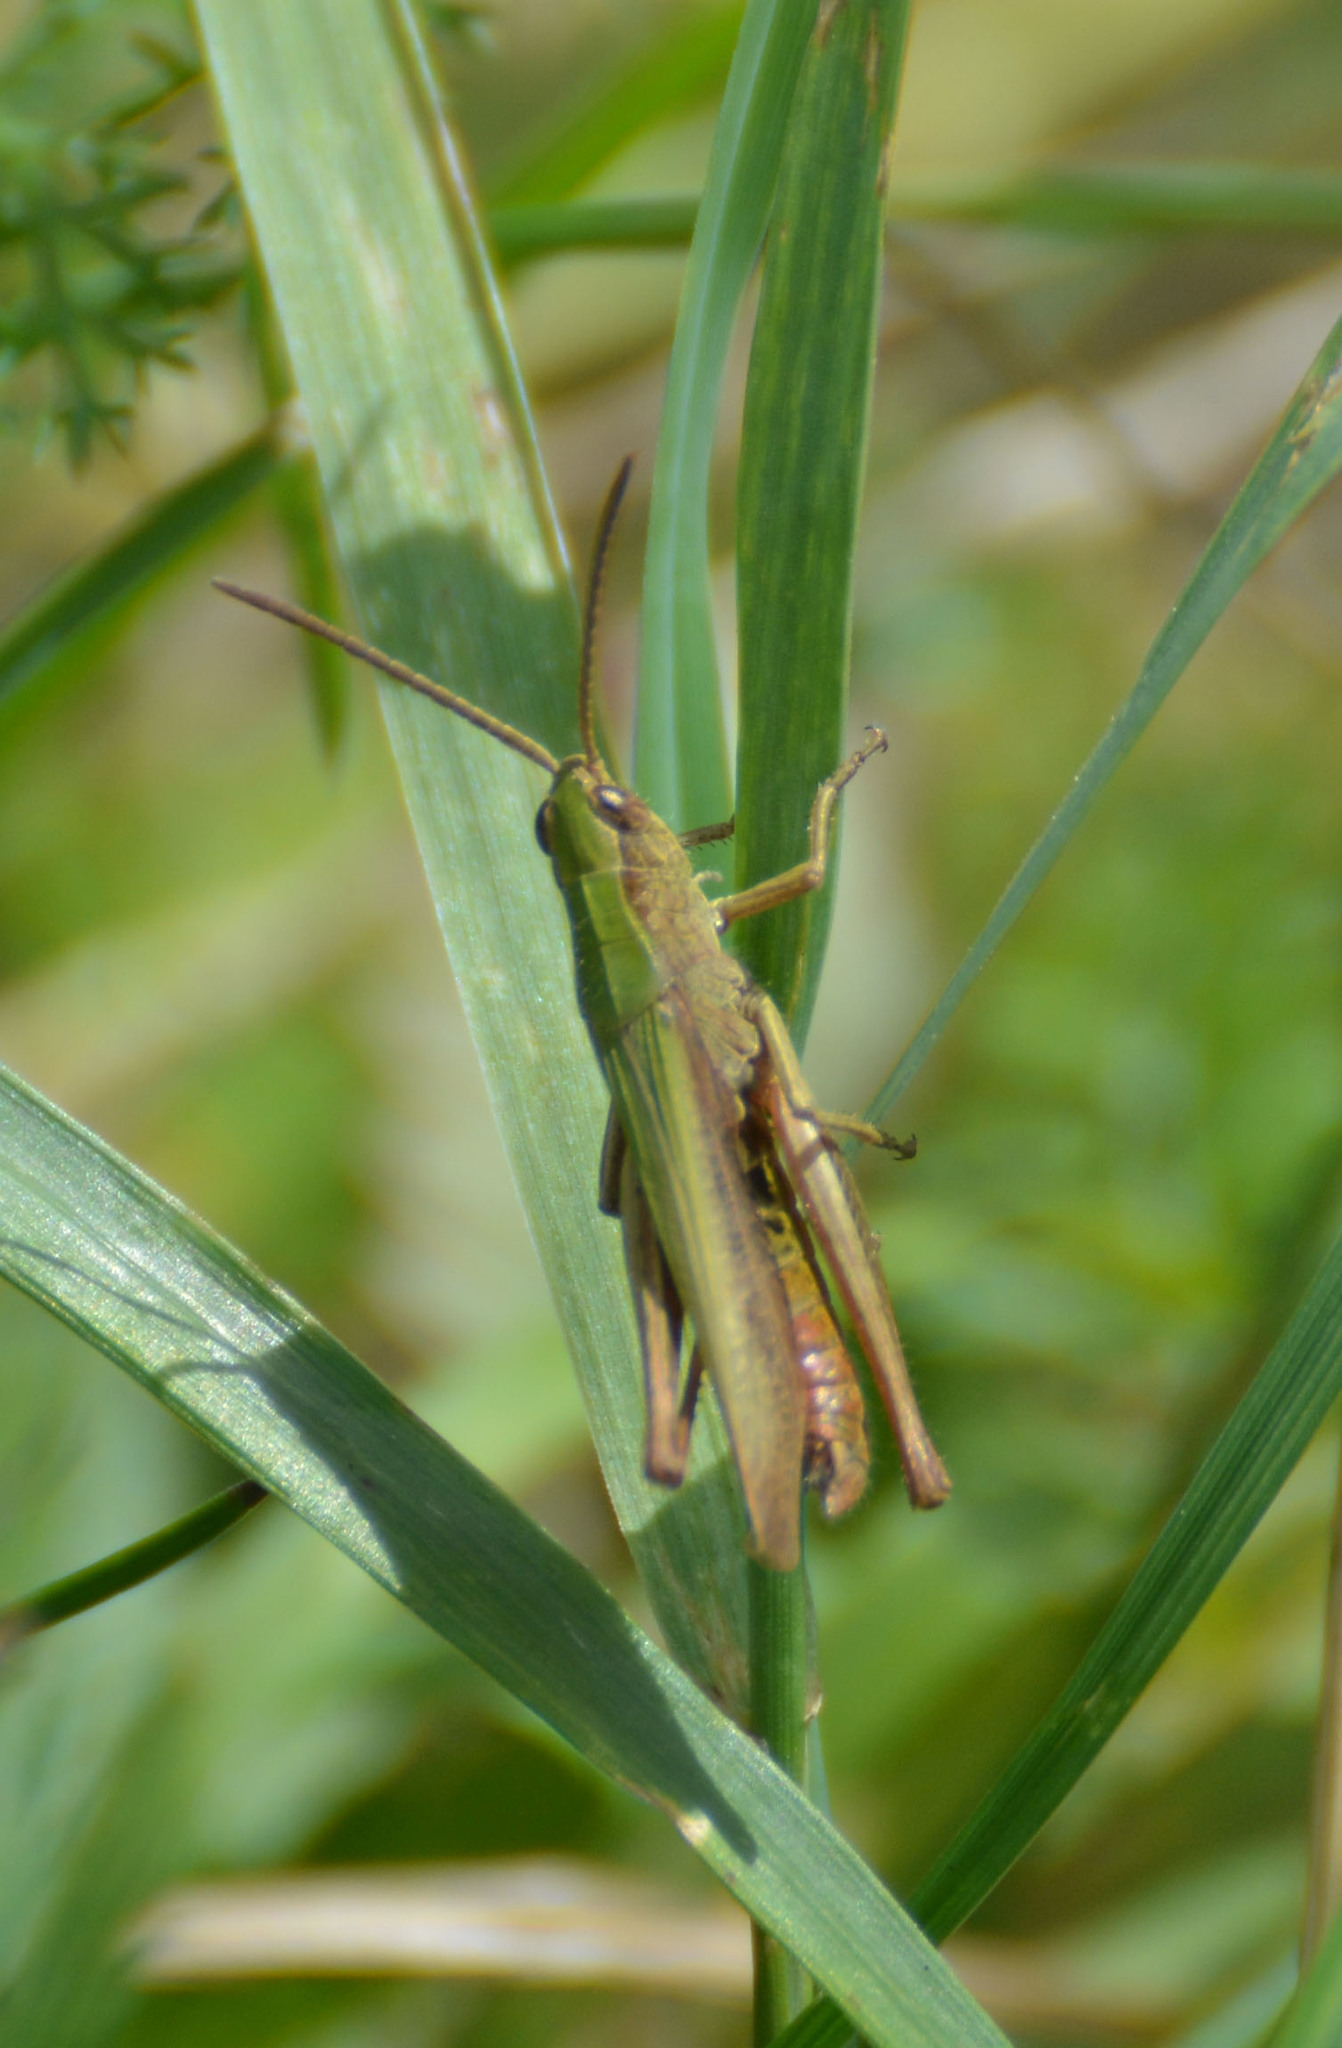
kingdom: Animalia
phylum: Arthropoda
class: Insecta
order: Orthoptera
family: Acrididae
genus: Chorthippus
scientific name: Chorthippus dorsatus
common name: Steppe grasshopper
